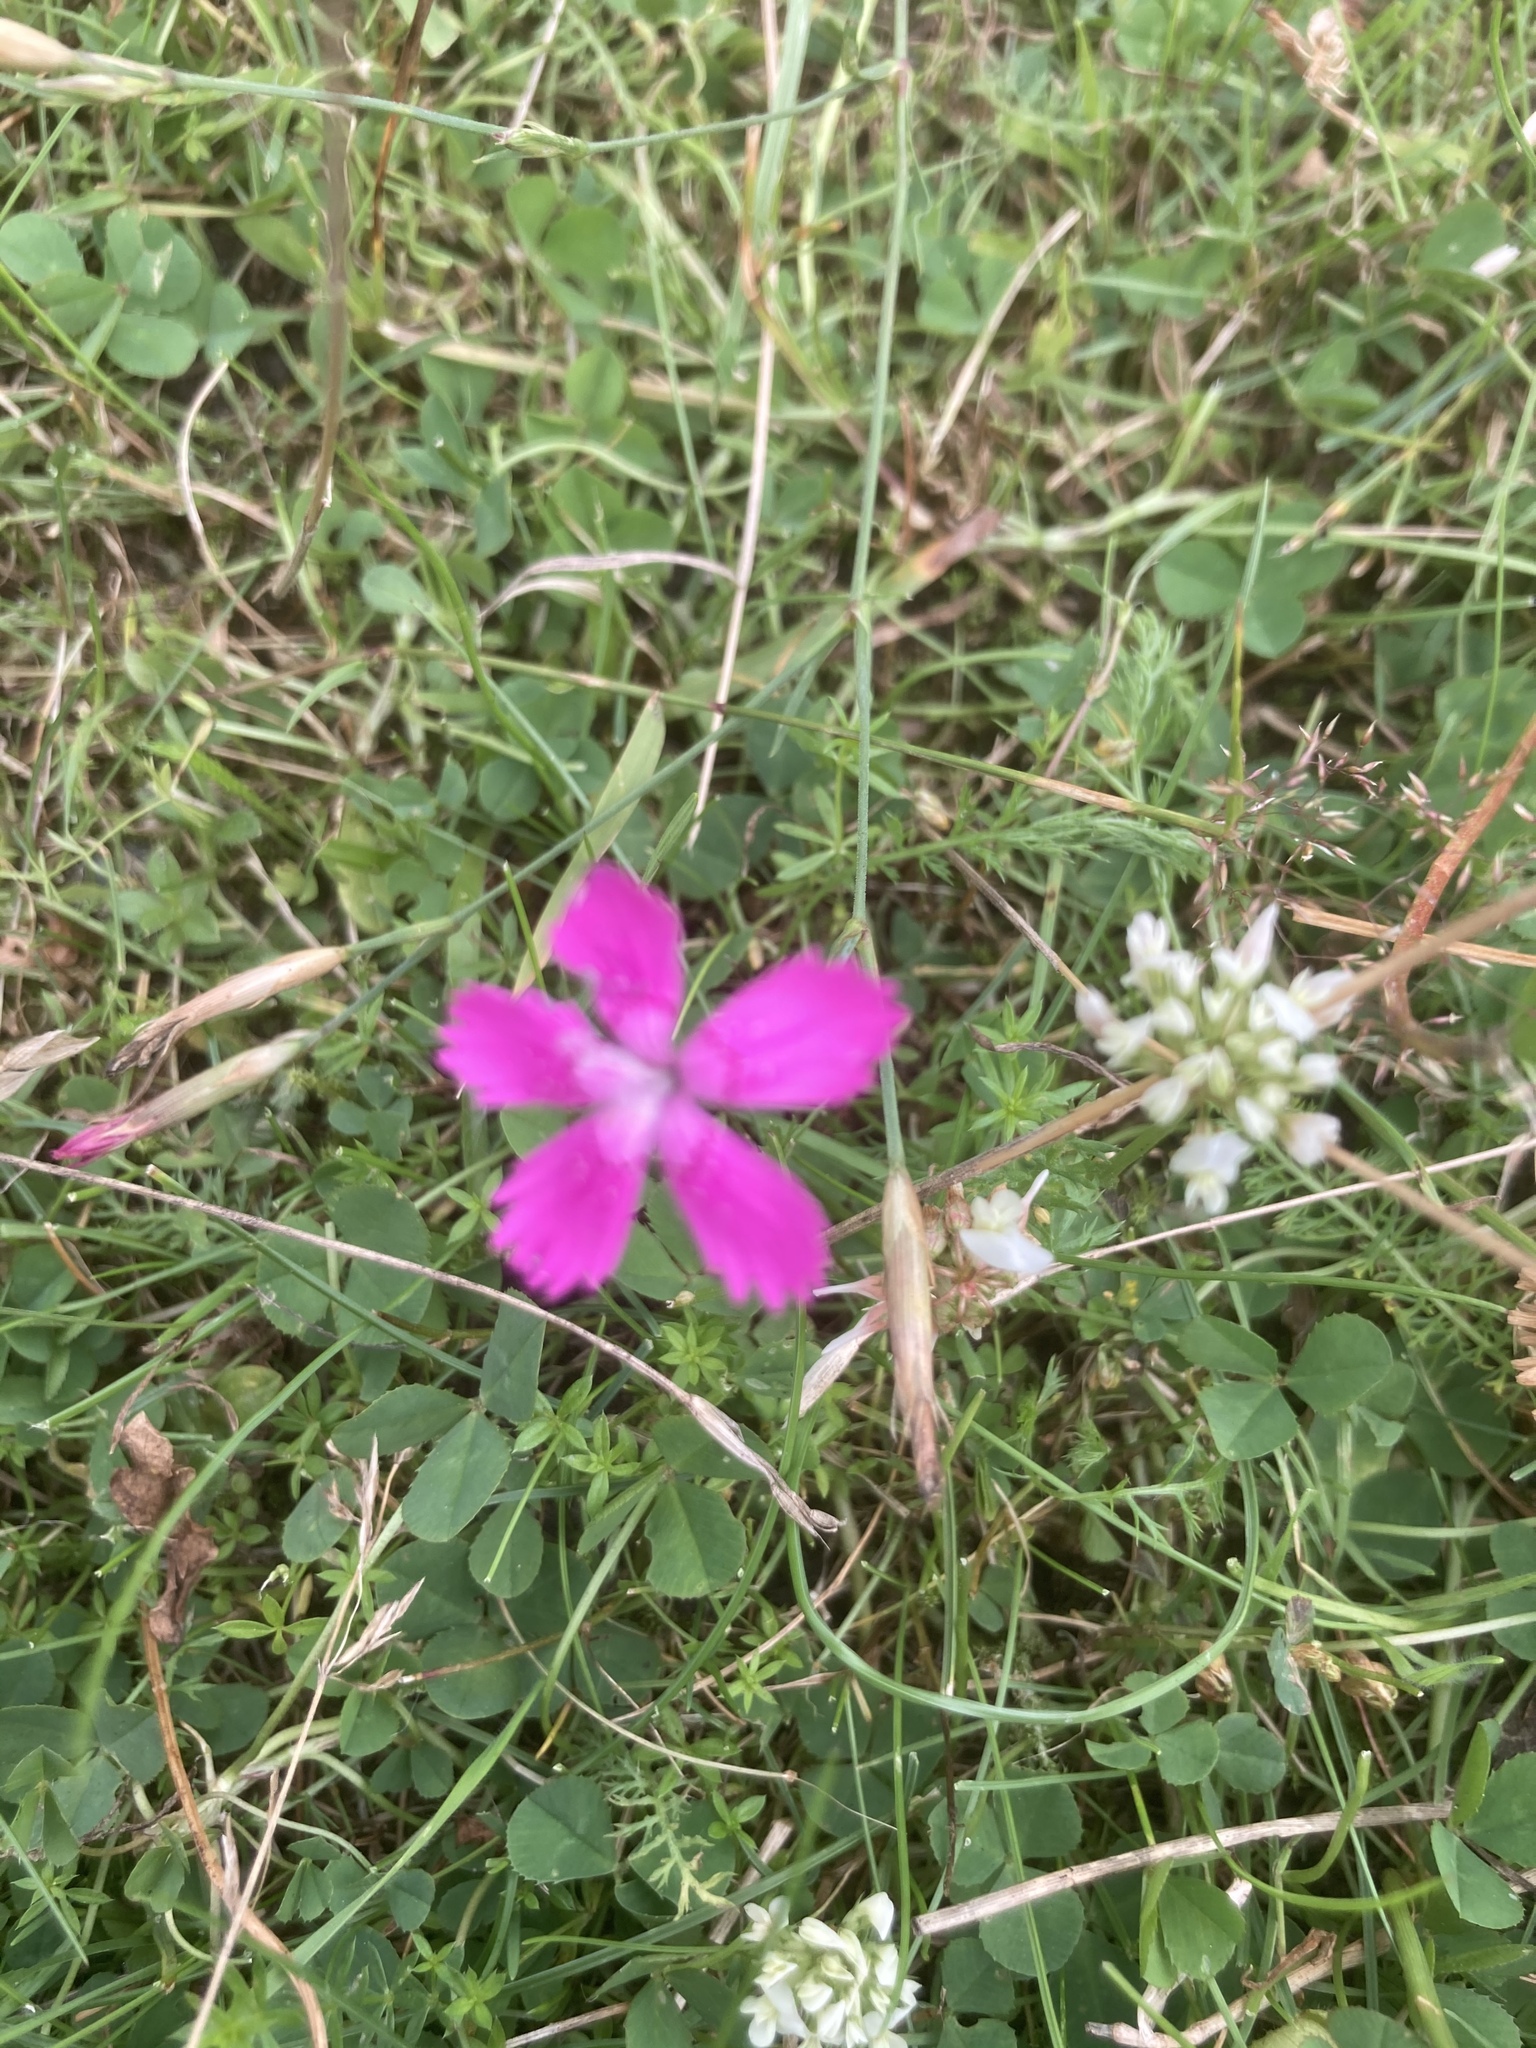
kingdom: Plantae
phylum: Tracheophyta
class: Magnoliopsida
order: Caryophyllales
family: Caryophyllaceae
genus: Dianthus
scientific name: Dianthus deltoides
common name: Maiden pink
